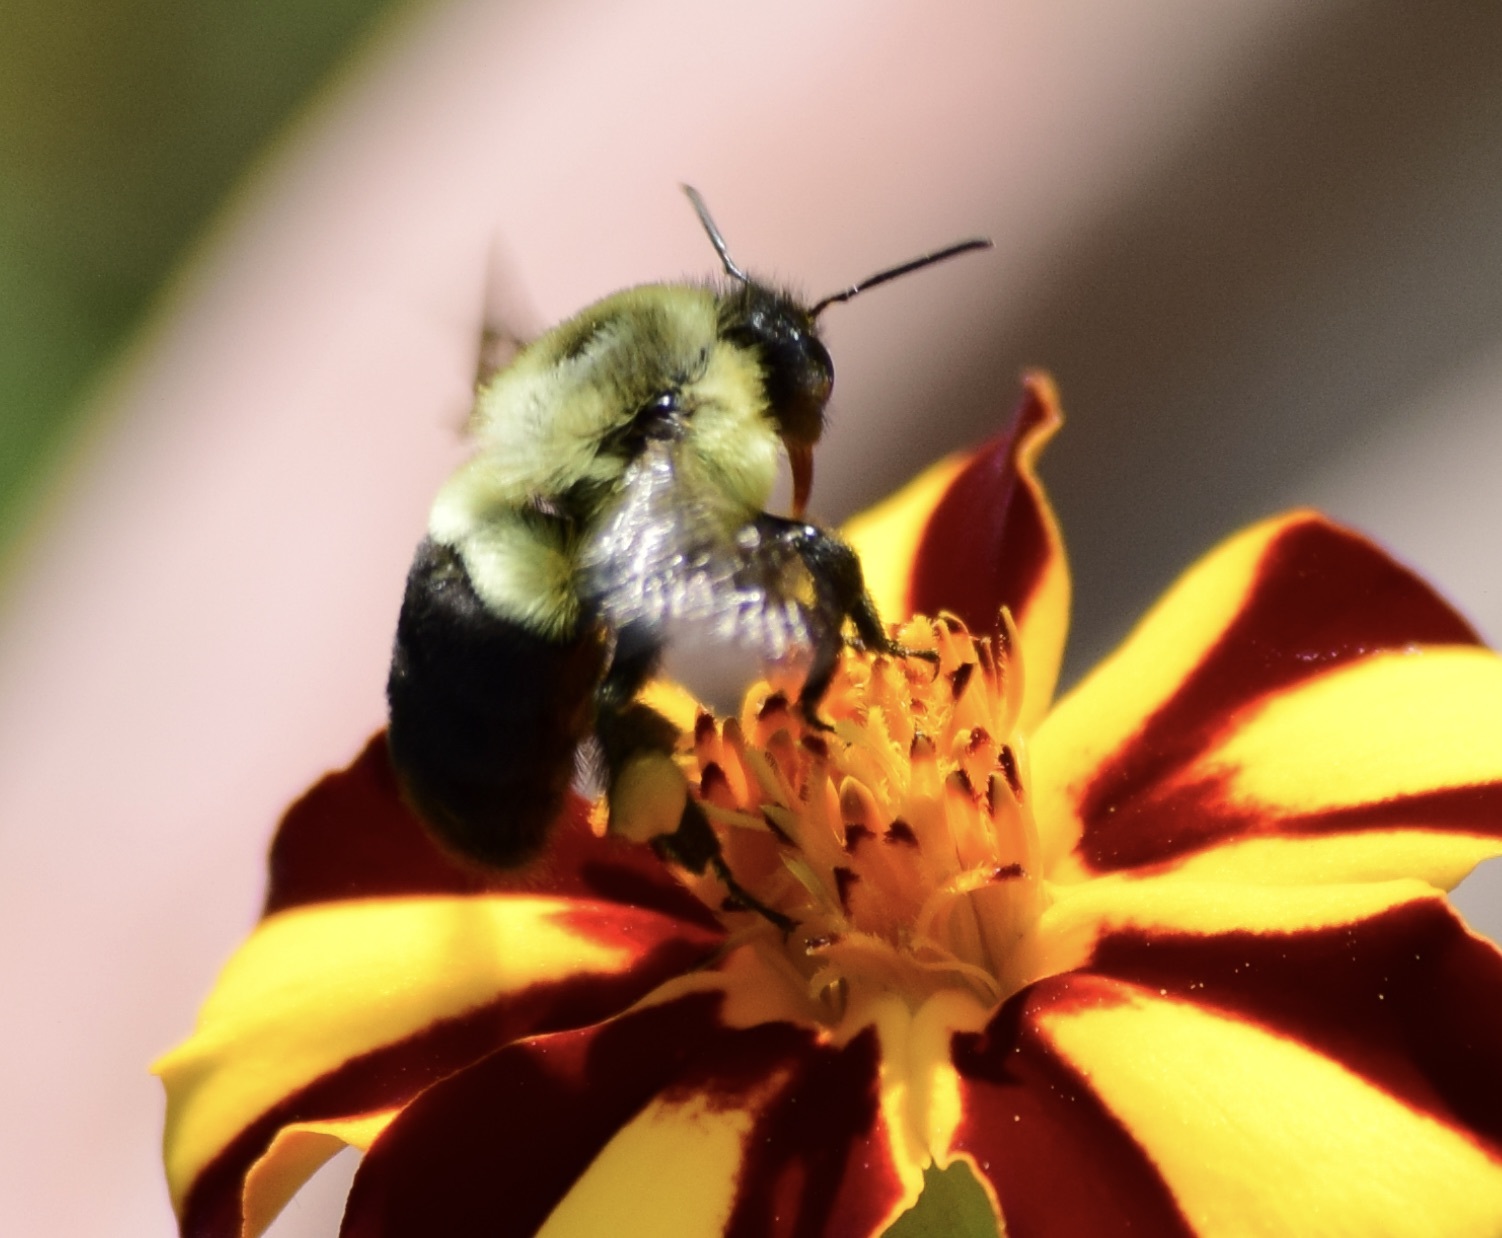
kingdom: Animalia
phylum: Arthropoda
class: Insecta
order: Hymenoptera
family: Apidae
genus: Bombus
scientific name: Bombus impatiens
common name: Common eastern bumble bee
